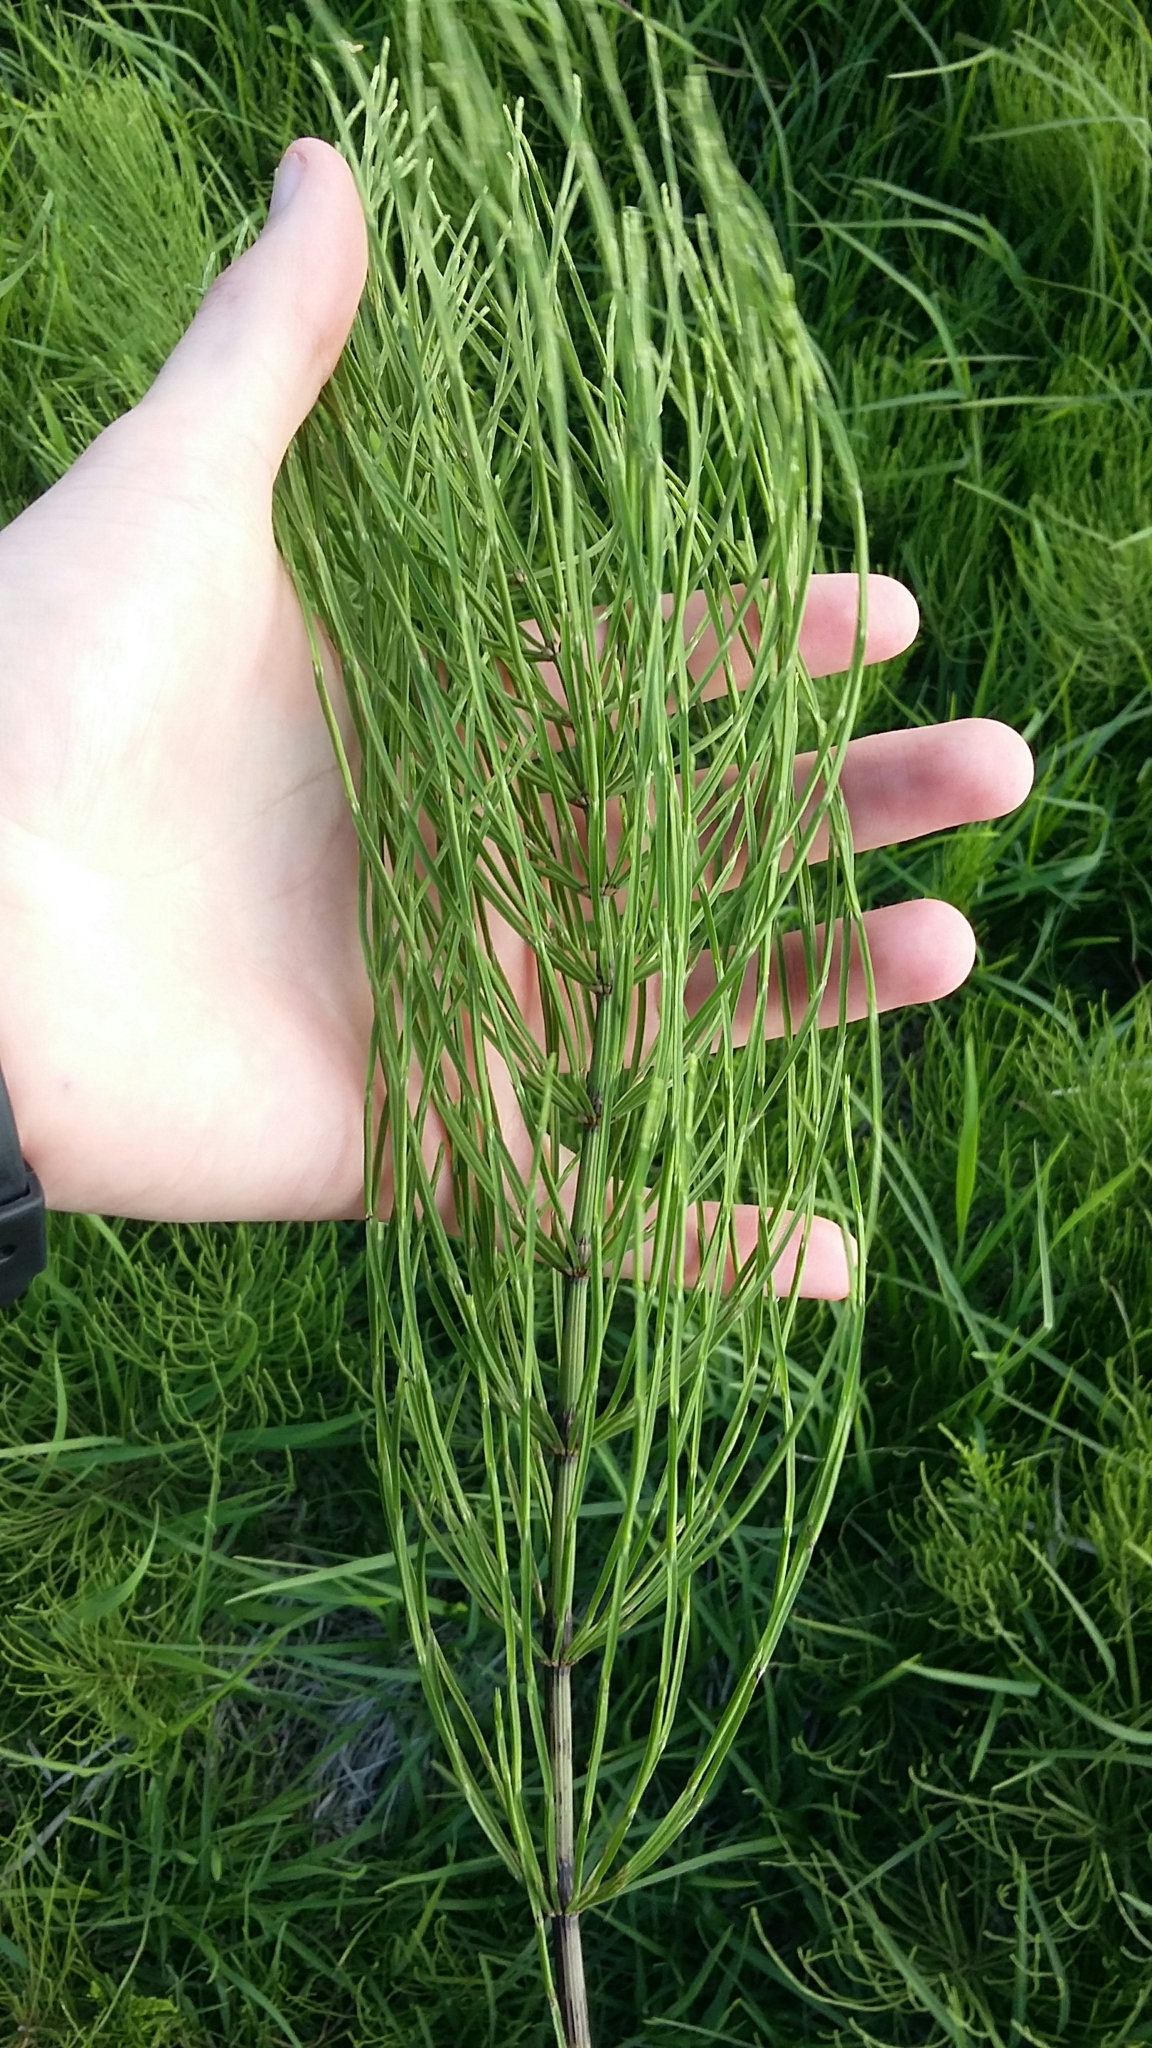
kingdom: Plantae
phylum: Tracheophyta
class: Polypodiopsida
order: Equisetales
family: Equisetaceae
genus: Equisetum
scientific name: Equisetum arvense
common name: Field horsetail
